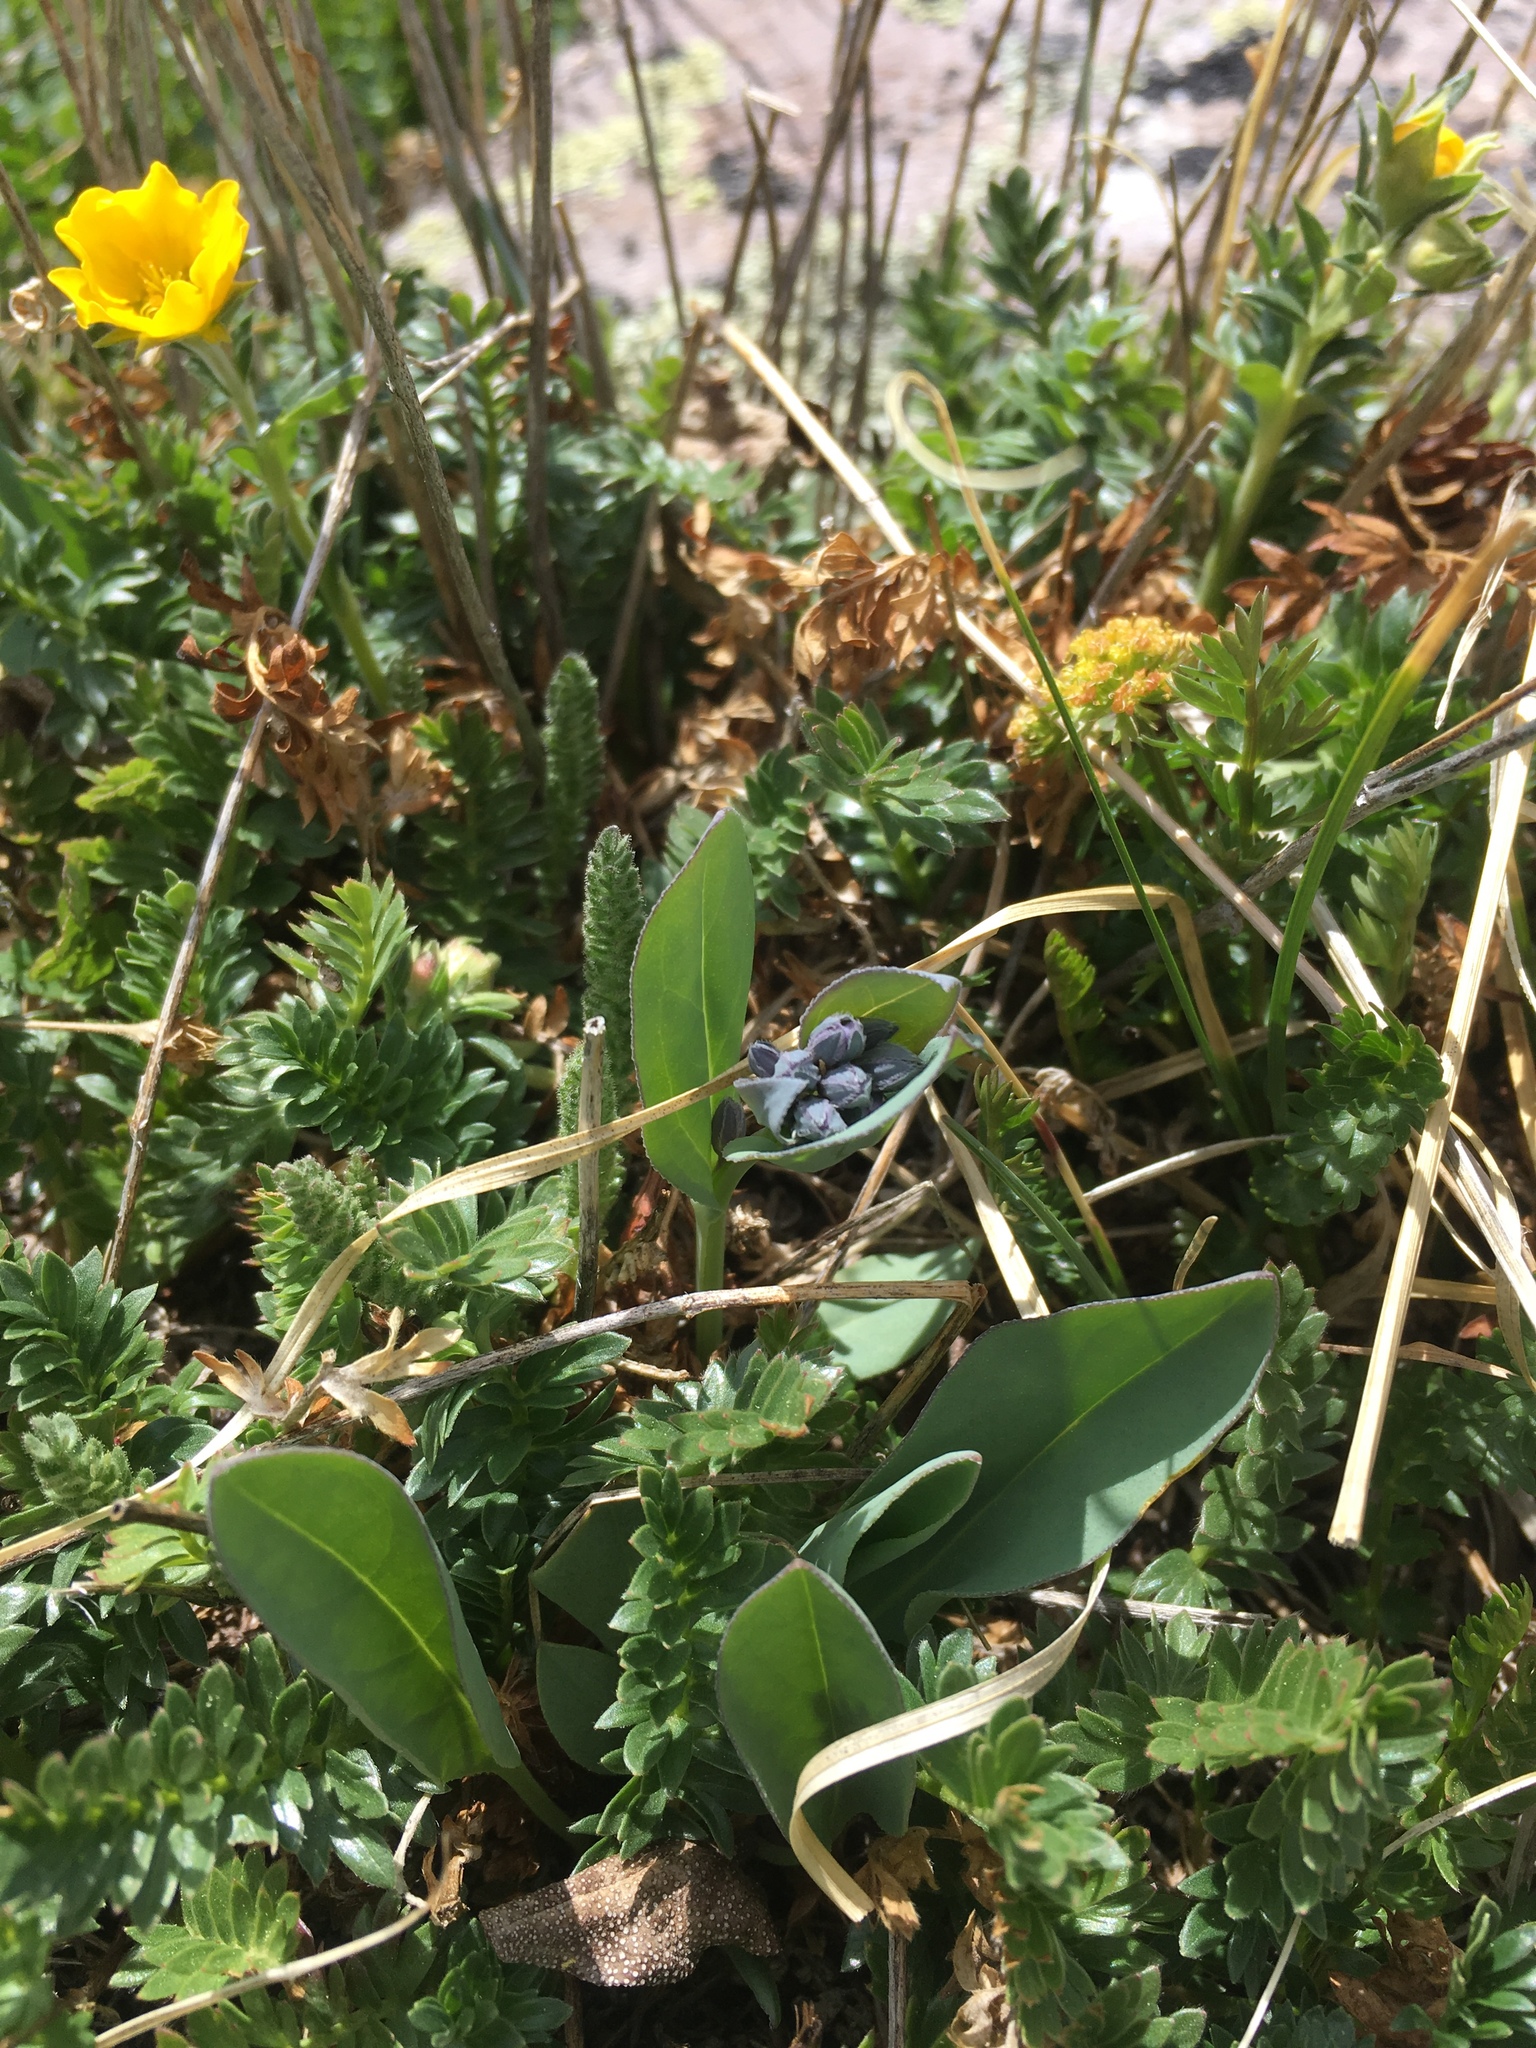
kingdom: Plantae
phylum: Tracheophyta
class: Magnoliopsida
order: Boraginales
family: Boraginaceae
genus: Mertensia
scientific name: Mertensia ovata
